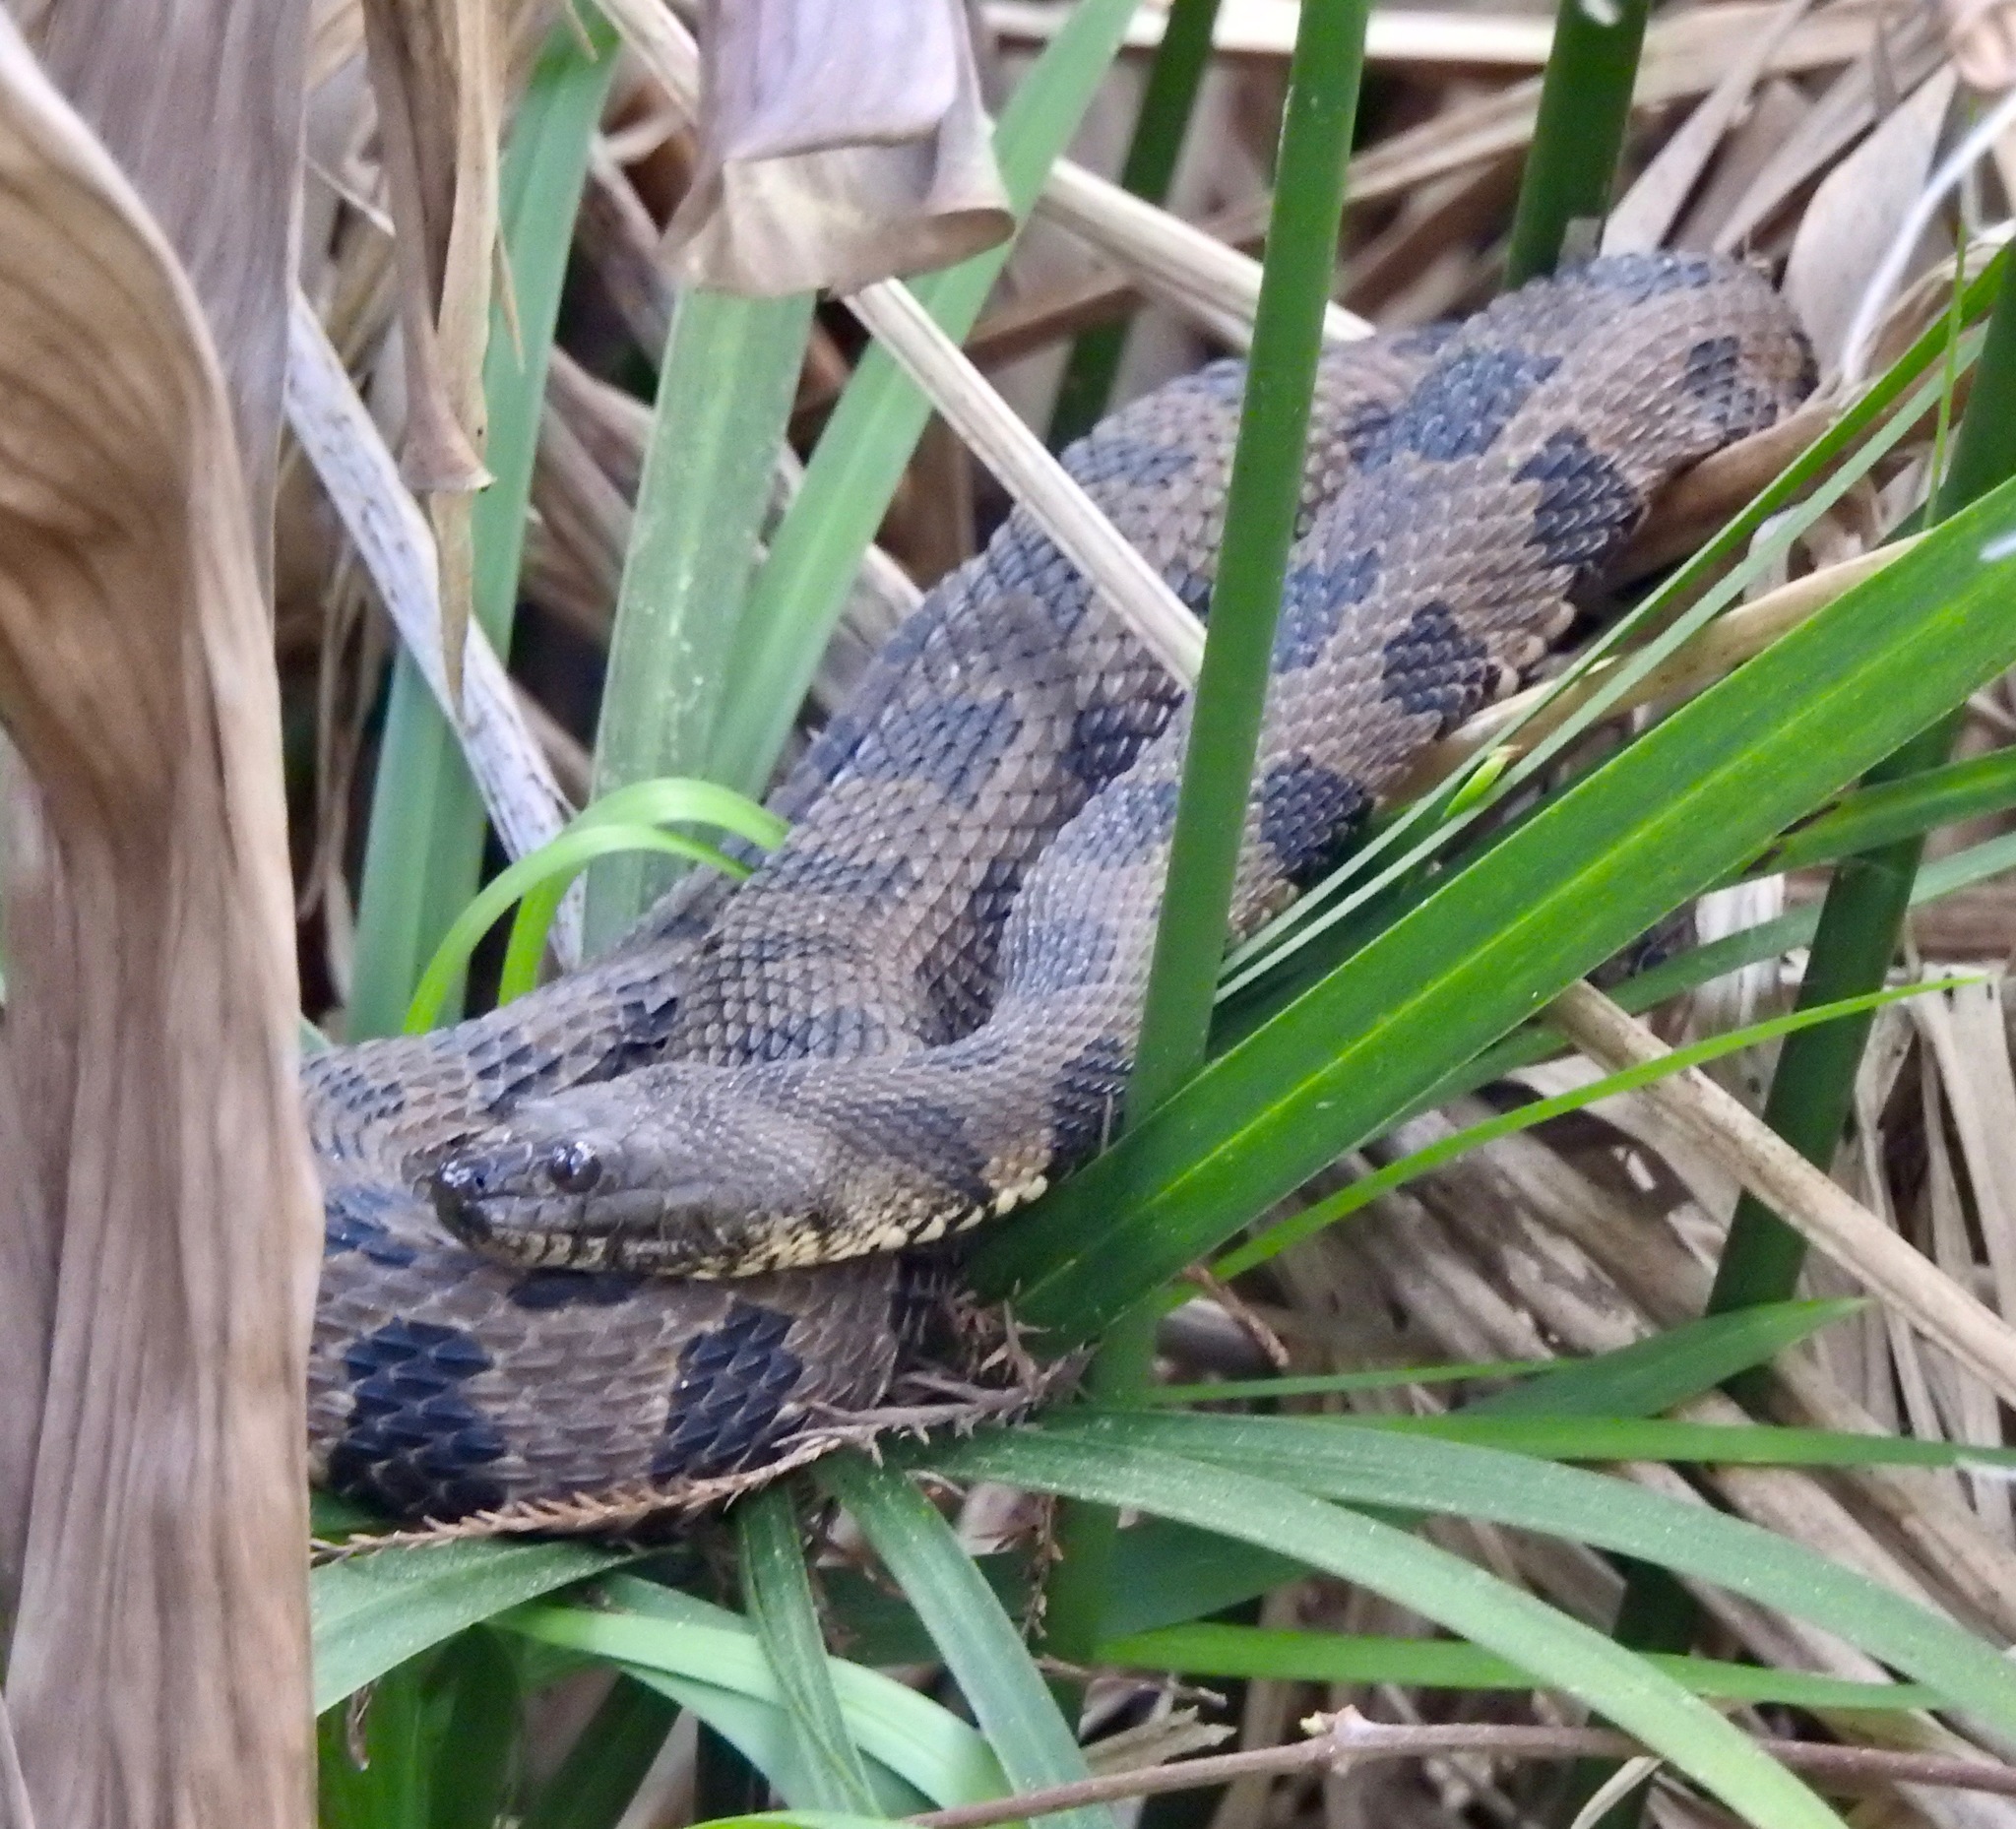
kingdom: Animalia
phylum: Chordata
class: Squamata
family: Colubridae
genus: Nerodia
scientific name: Nerodia taxispilota
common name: Brown water snake
